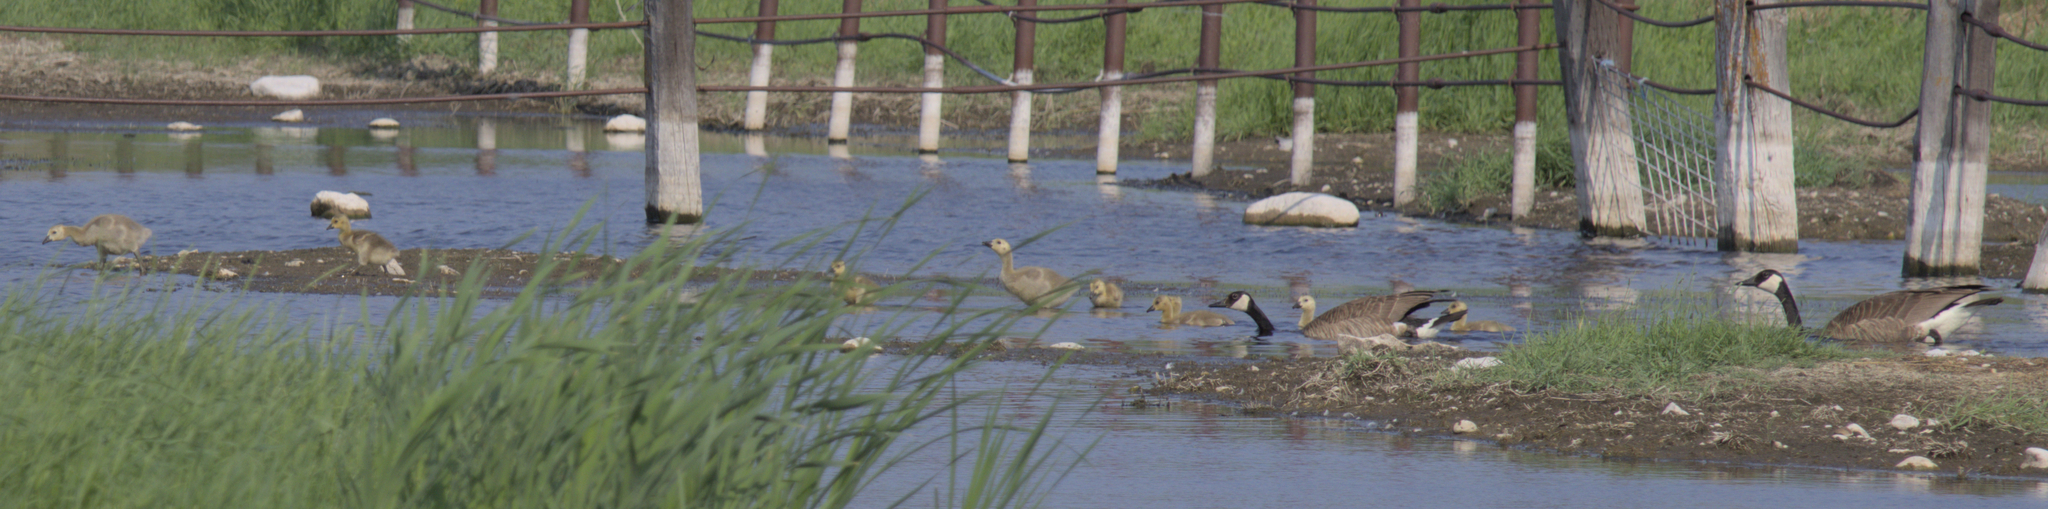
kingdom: Animalia
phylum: Chordata
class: Aves
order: Anseriformes
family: Anatidae
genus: Branta
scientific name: Branta canadensis
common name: Canada goose
